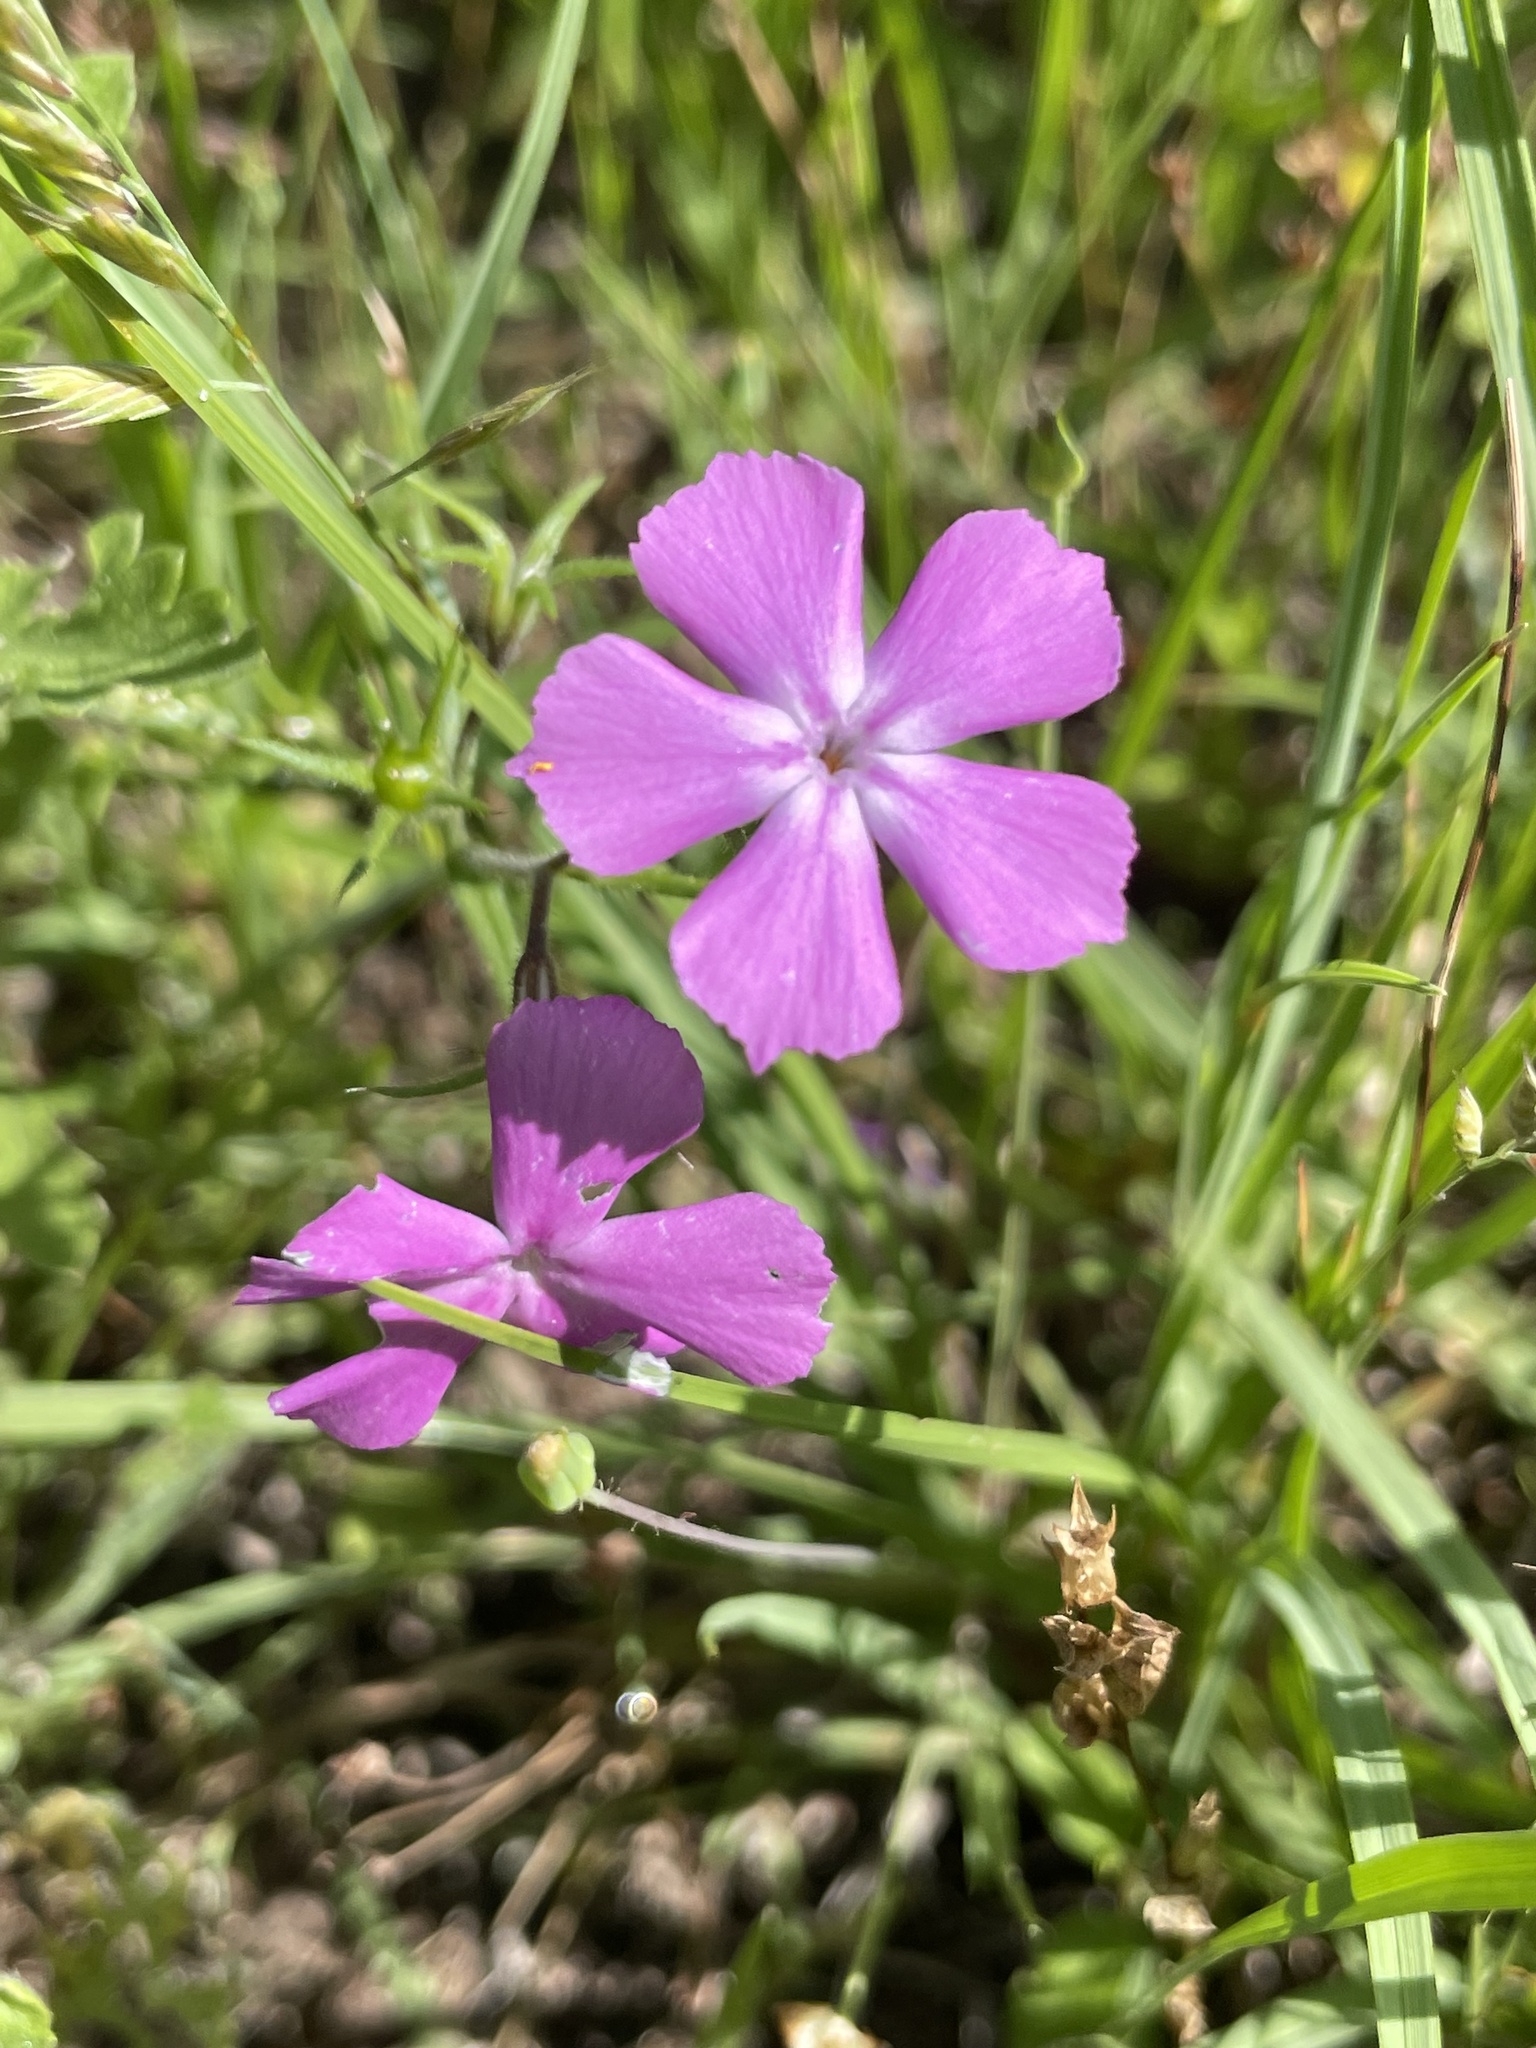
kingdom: Plantae
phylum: Tracheophyta
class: Magnoliopsida
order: Ericales
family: Polemoniaceae
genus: Phlox
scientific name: Phlox cuspidata
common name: Pointed phlox
